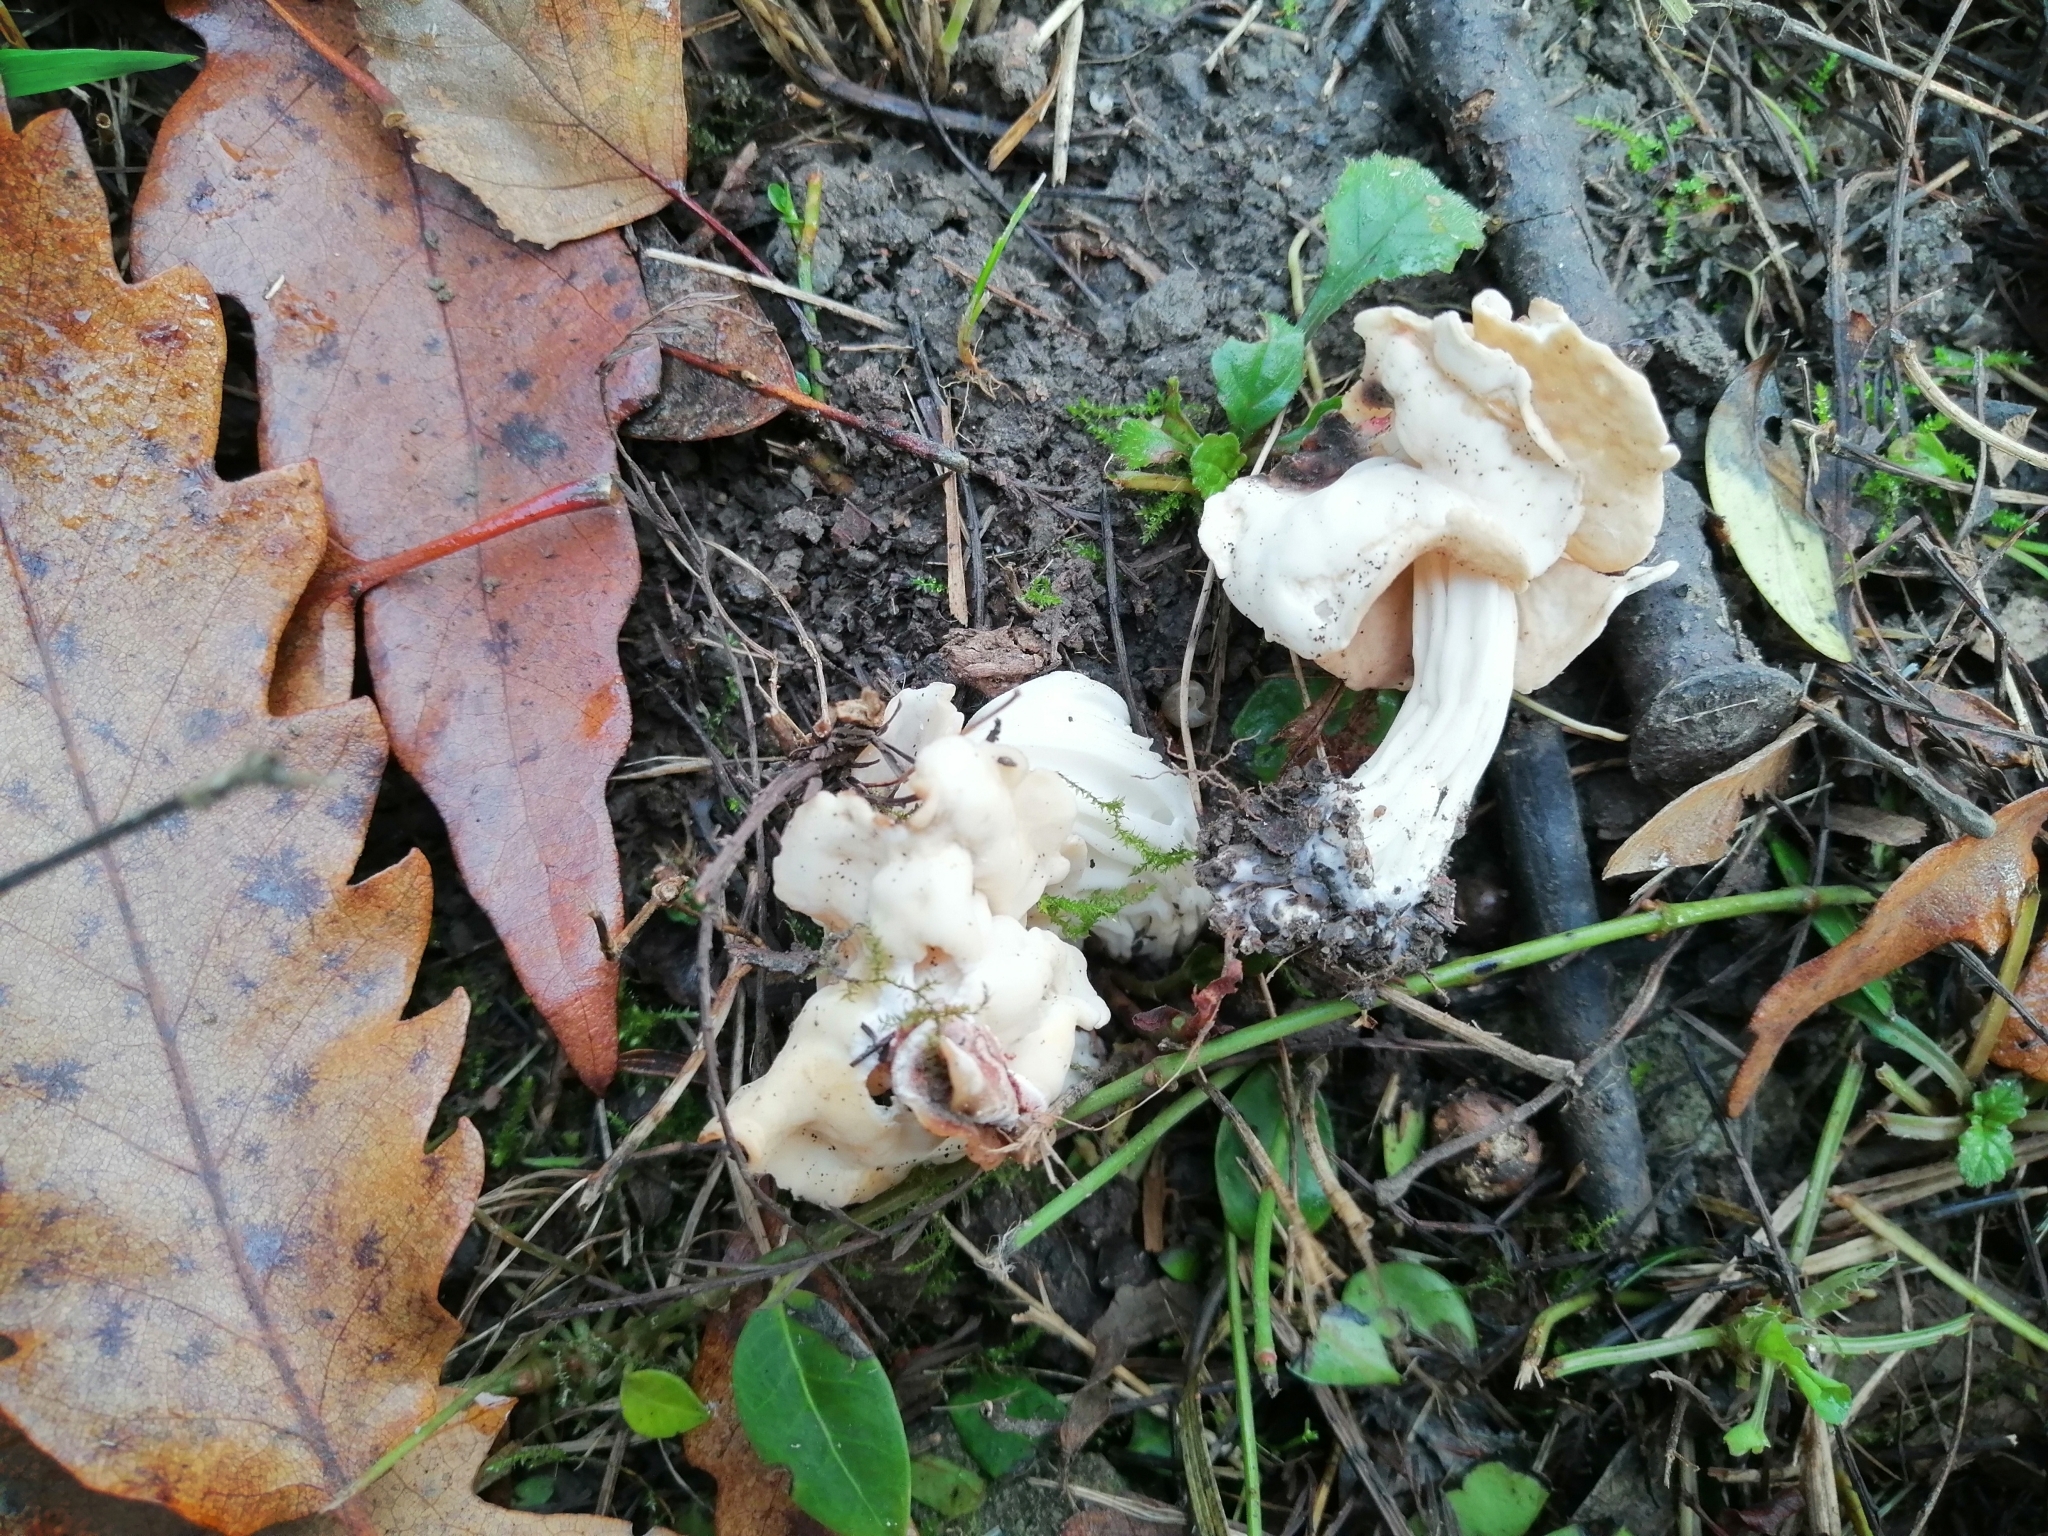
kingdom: Fungi
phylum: Ascomycota
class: Pezizomycetes
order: Pezizales
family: Helvellaceae
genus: Helvella
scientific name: Helvella crispa
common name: White saddle
